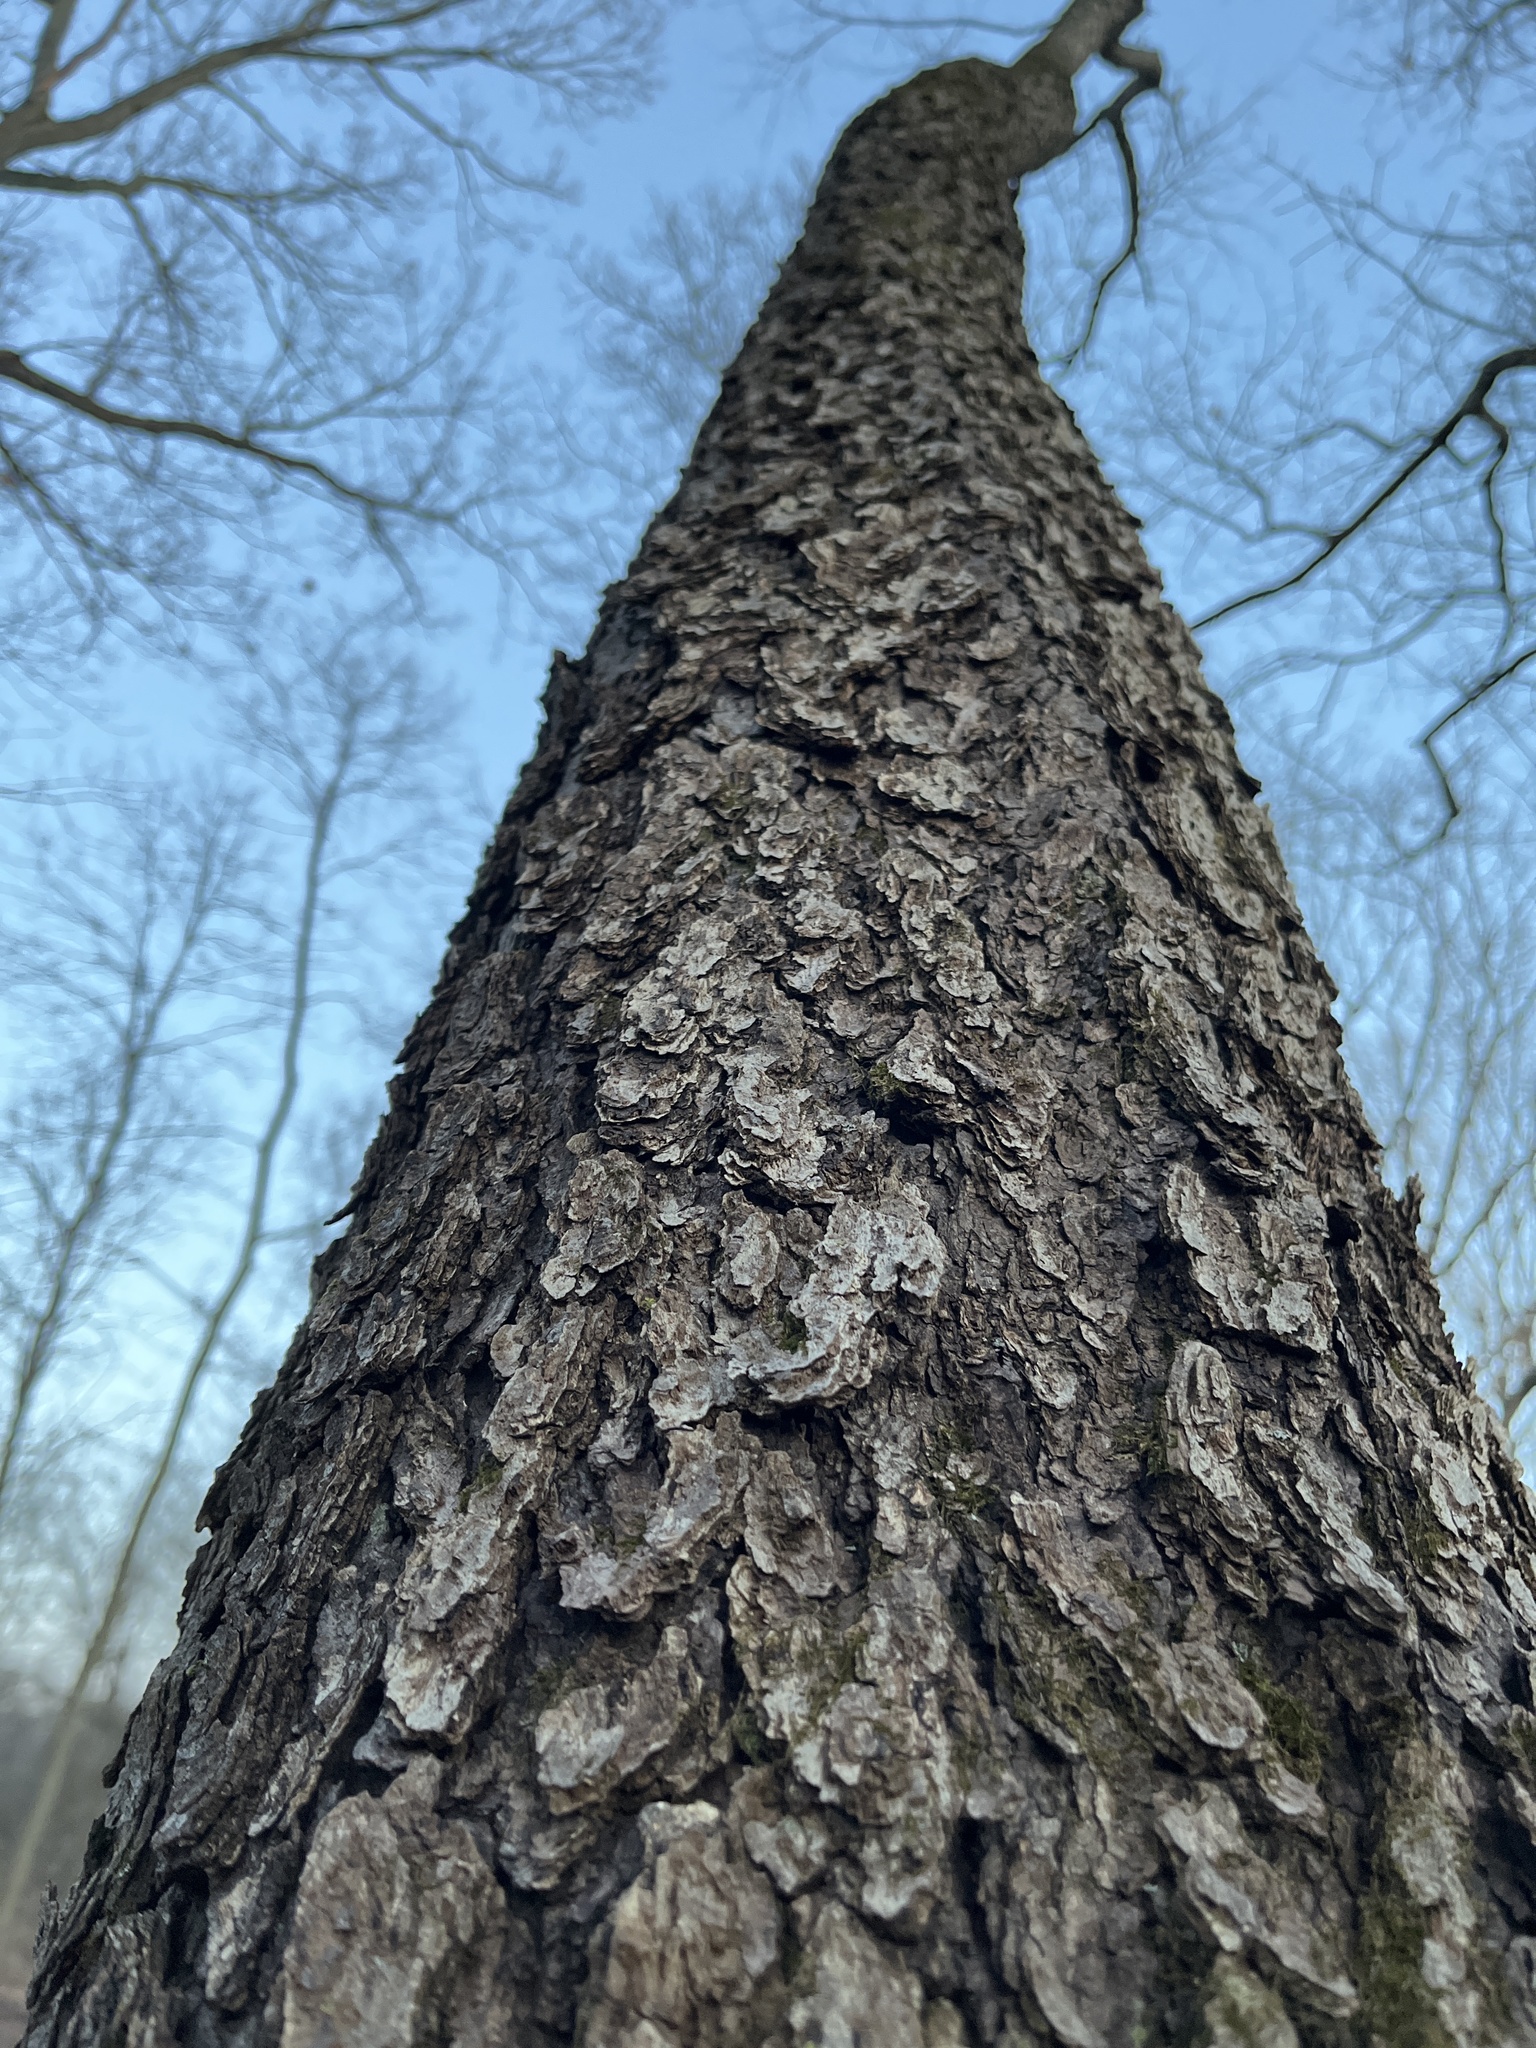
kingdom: Plantae
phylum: Tracheophyta
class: Magnoliopsida
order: Rosales
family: Rosaceae
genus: Prunus
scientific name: Prunus serotina
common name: Black cherry
